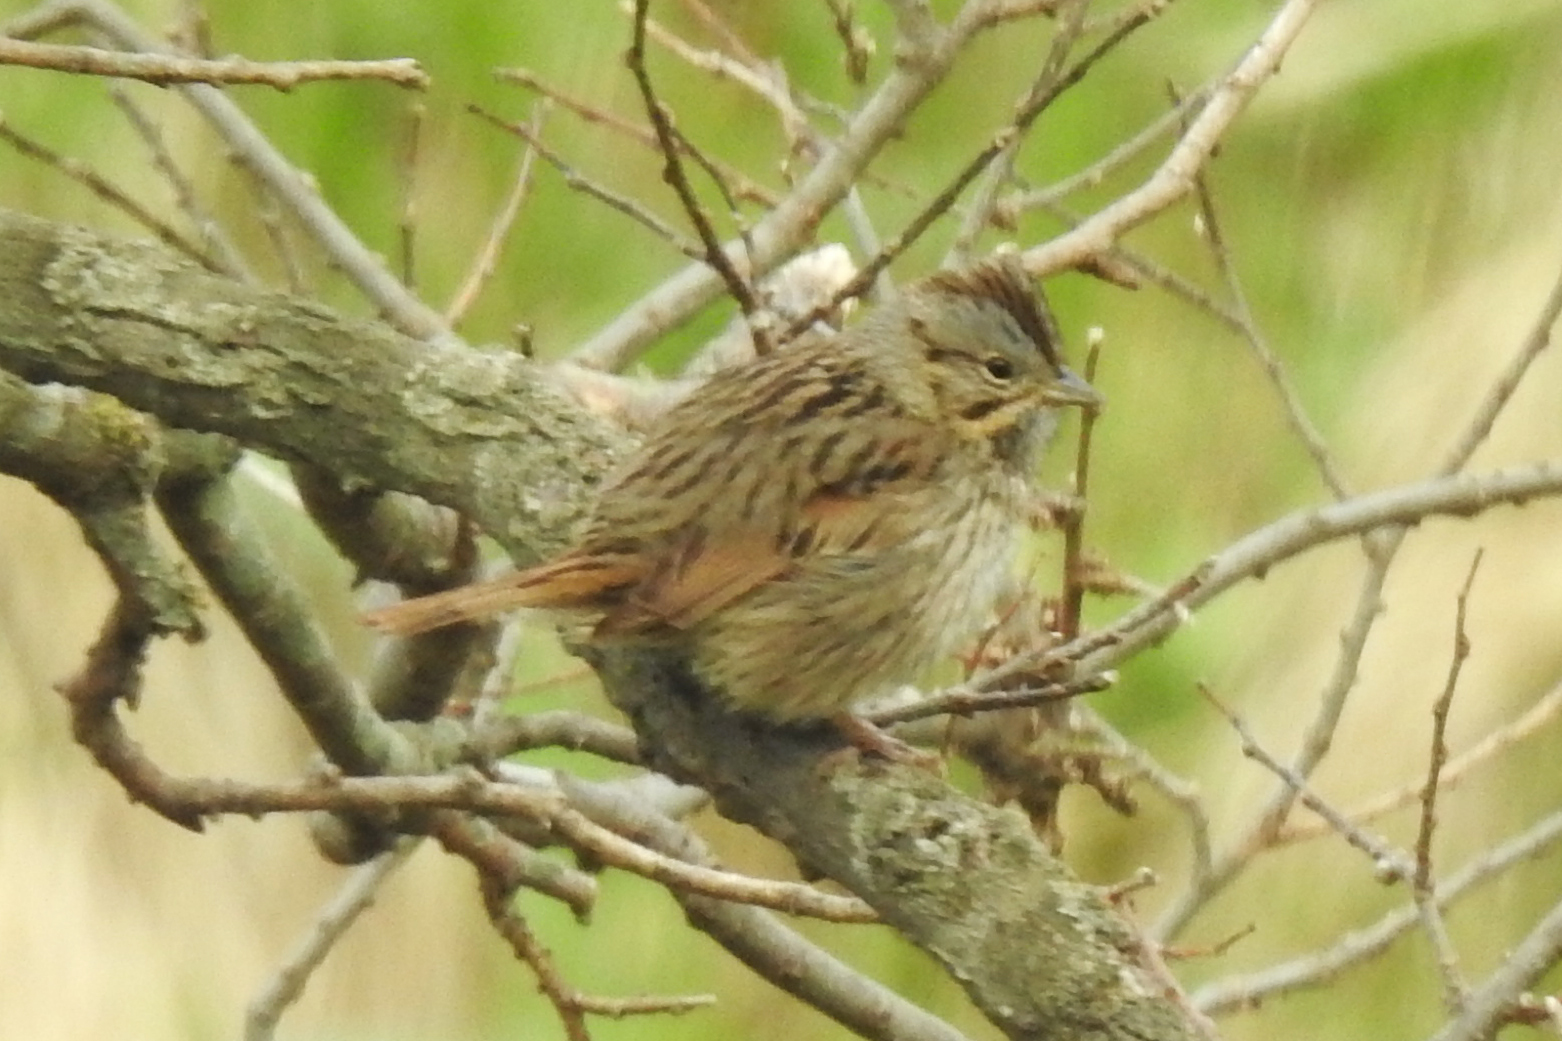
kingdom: Animalia
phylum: Chordata
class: Aves
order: Passeriformes
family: Passerellidae
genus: Melospiza
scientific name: Melospiza lincolnii
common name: Lincoln's sparrow
